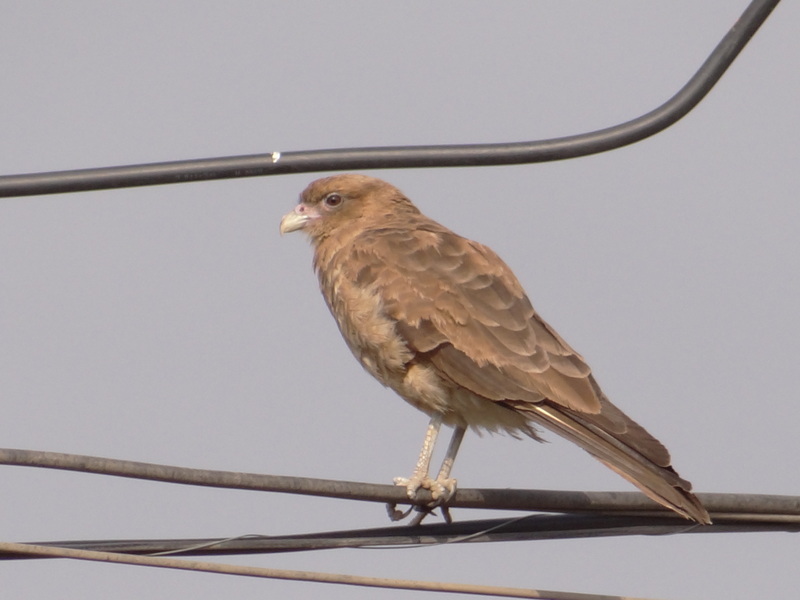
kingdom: Animalia
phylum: Chordata
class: Aves
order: Falconiformes
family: Falconidae
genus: Daptrius
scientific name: Daptrius
